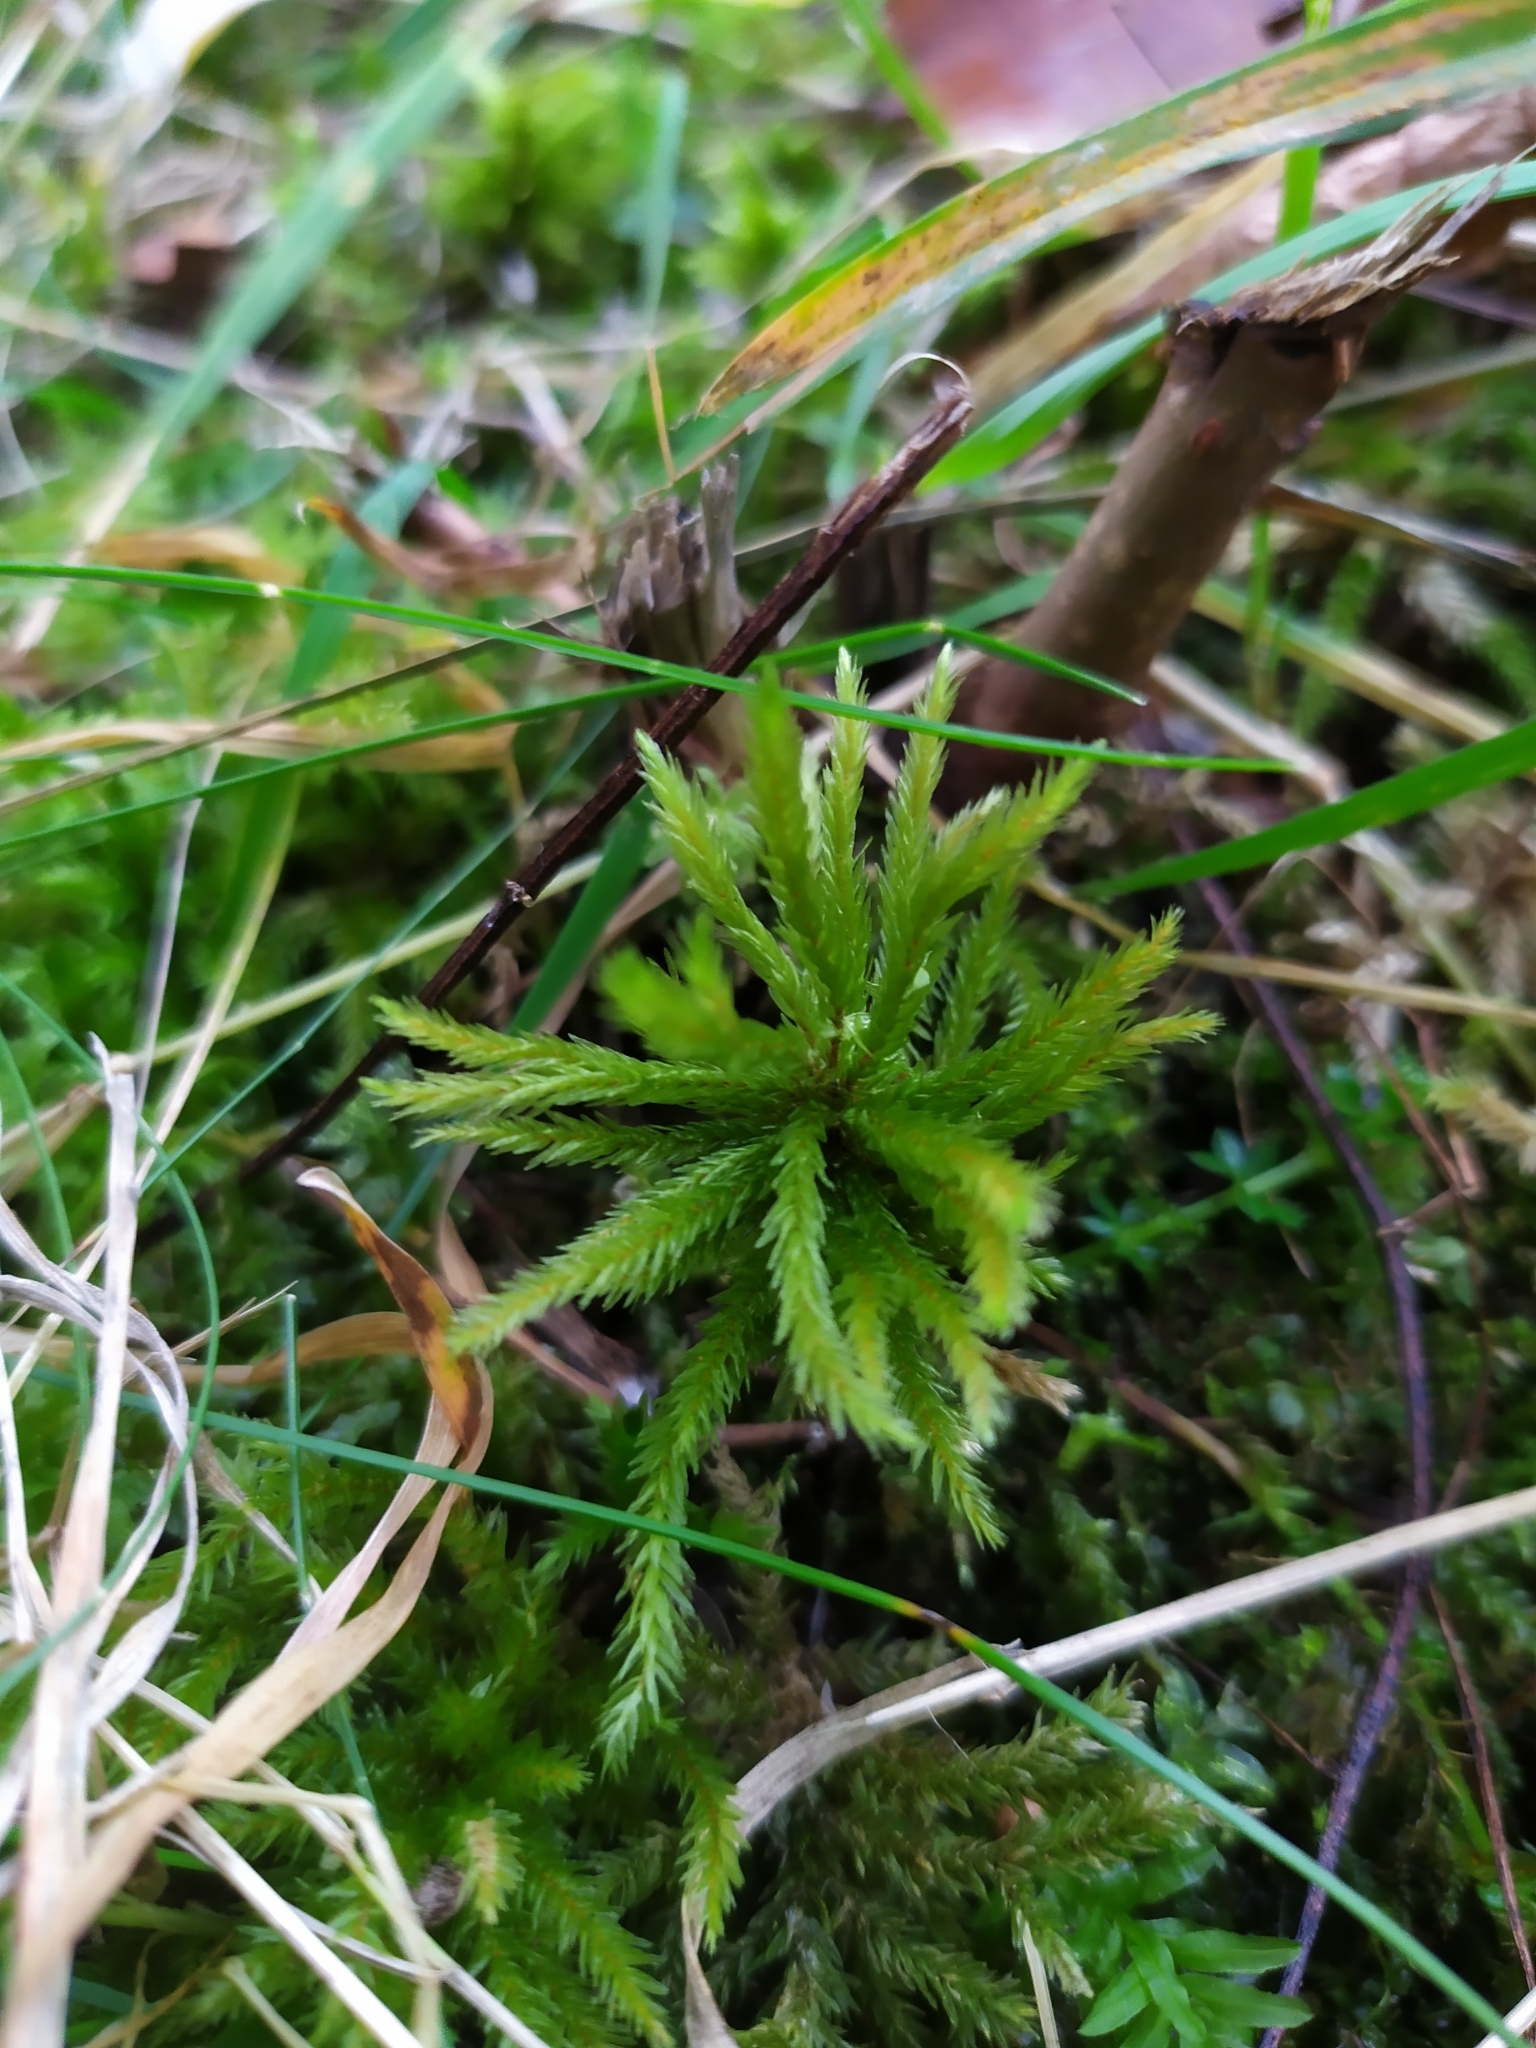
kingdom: Plantae
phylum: Bryophyta
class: Bryopsida
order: Hypnales
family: Climaciaceae
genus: Climacium
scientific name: Climacium dendroides
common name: Northern tree moss
